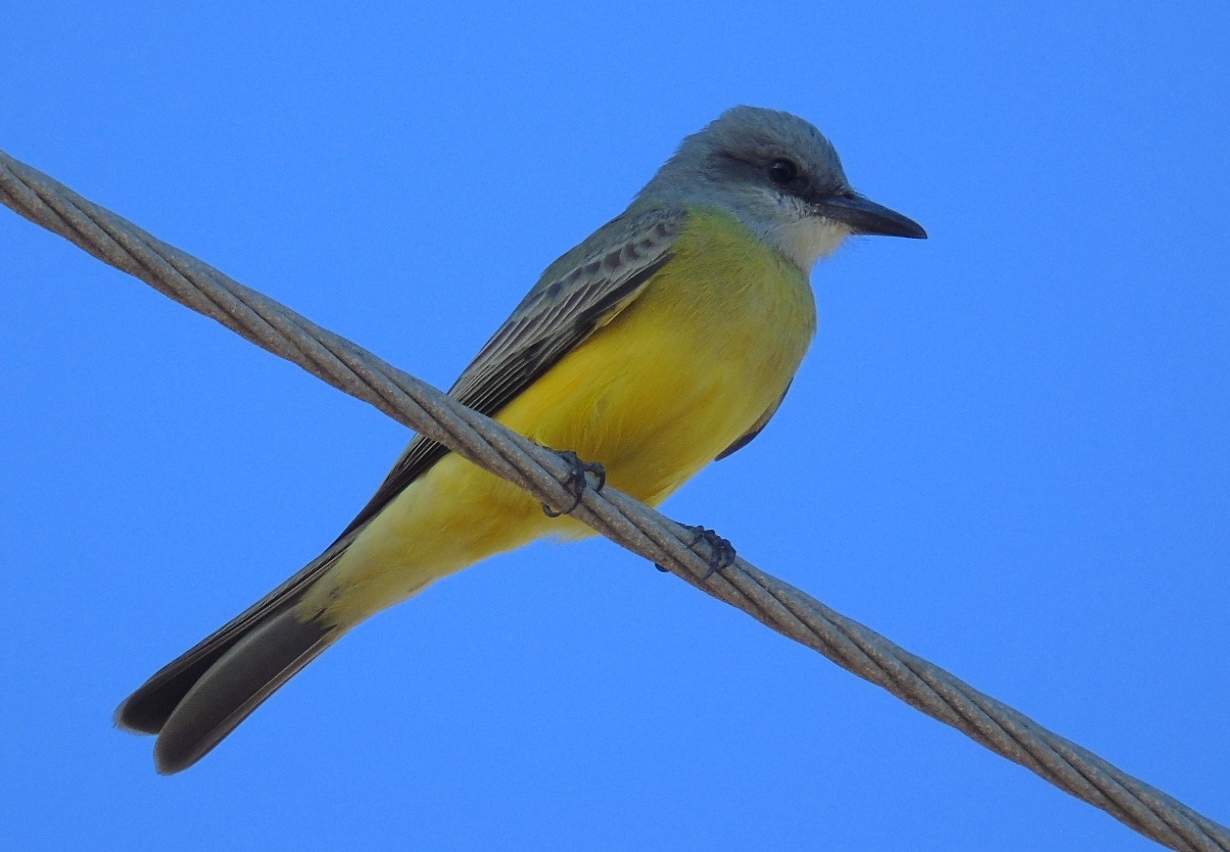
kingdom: Animalia
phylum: Chordata
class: Aves
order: Passeriformes
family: Tyrannidae
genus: Tyrannus
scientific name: Tyrannus melancholicus
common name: Tropical kingbird
